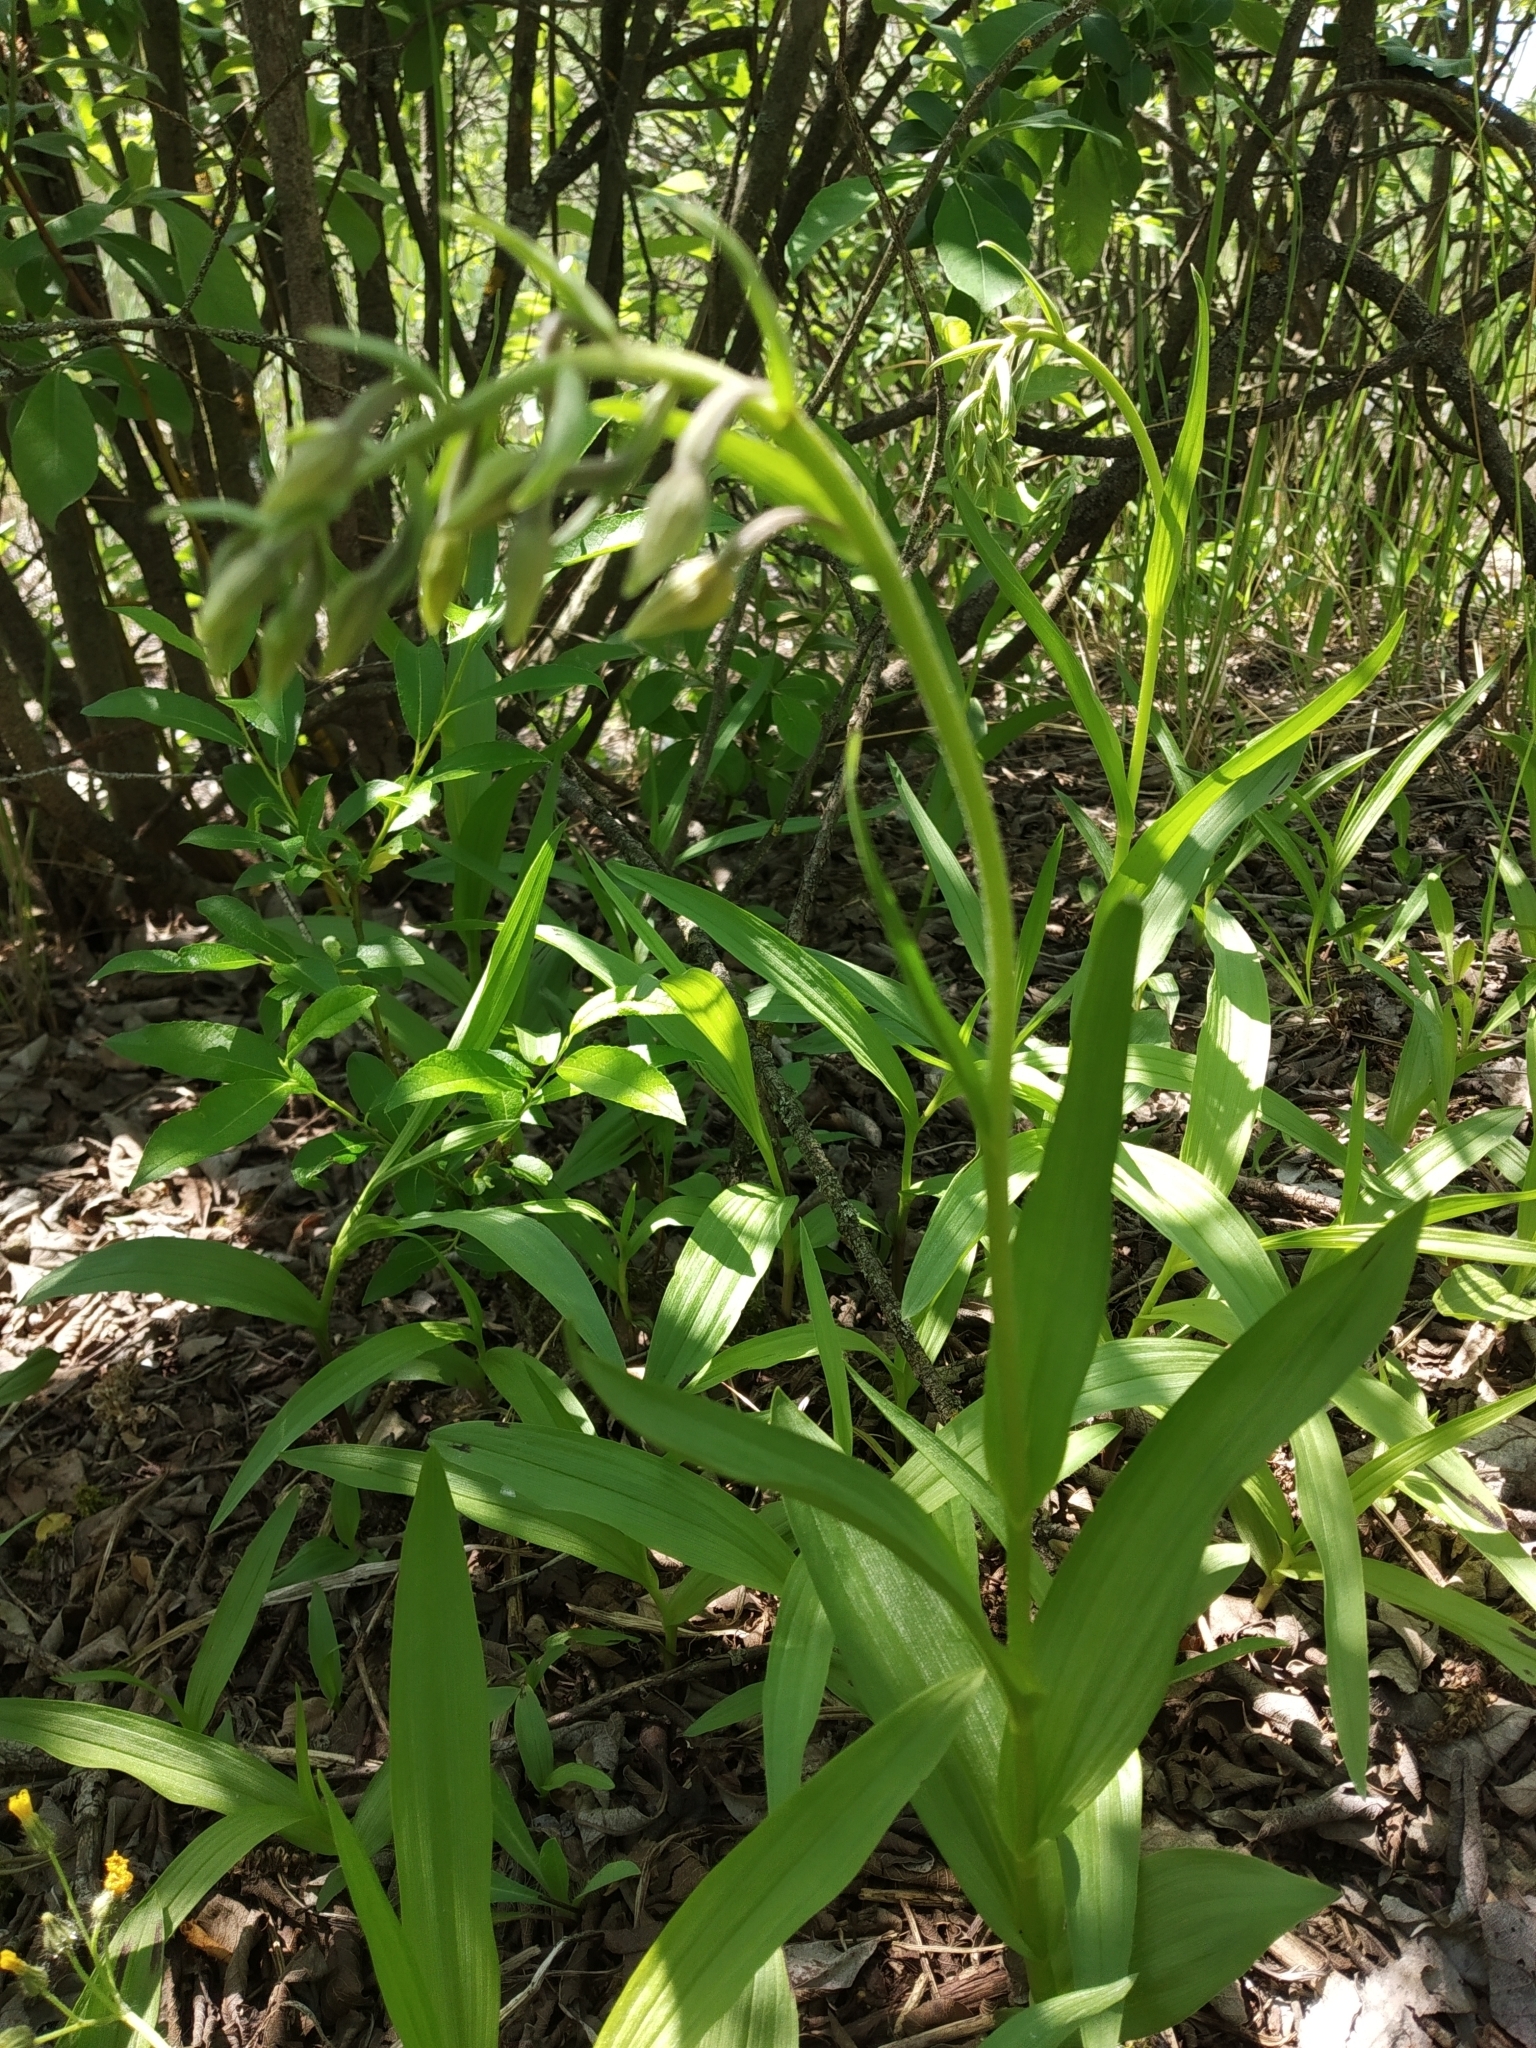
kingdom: Plantae
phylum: Tracheophyta
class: Liliopsida
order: Asparagales
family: Orchidaceae
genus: Epipactis
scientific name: Epipactis palustris
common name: Marsh helleborine
